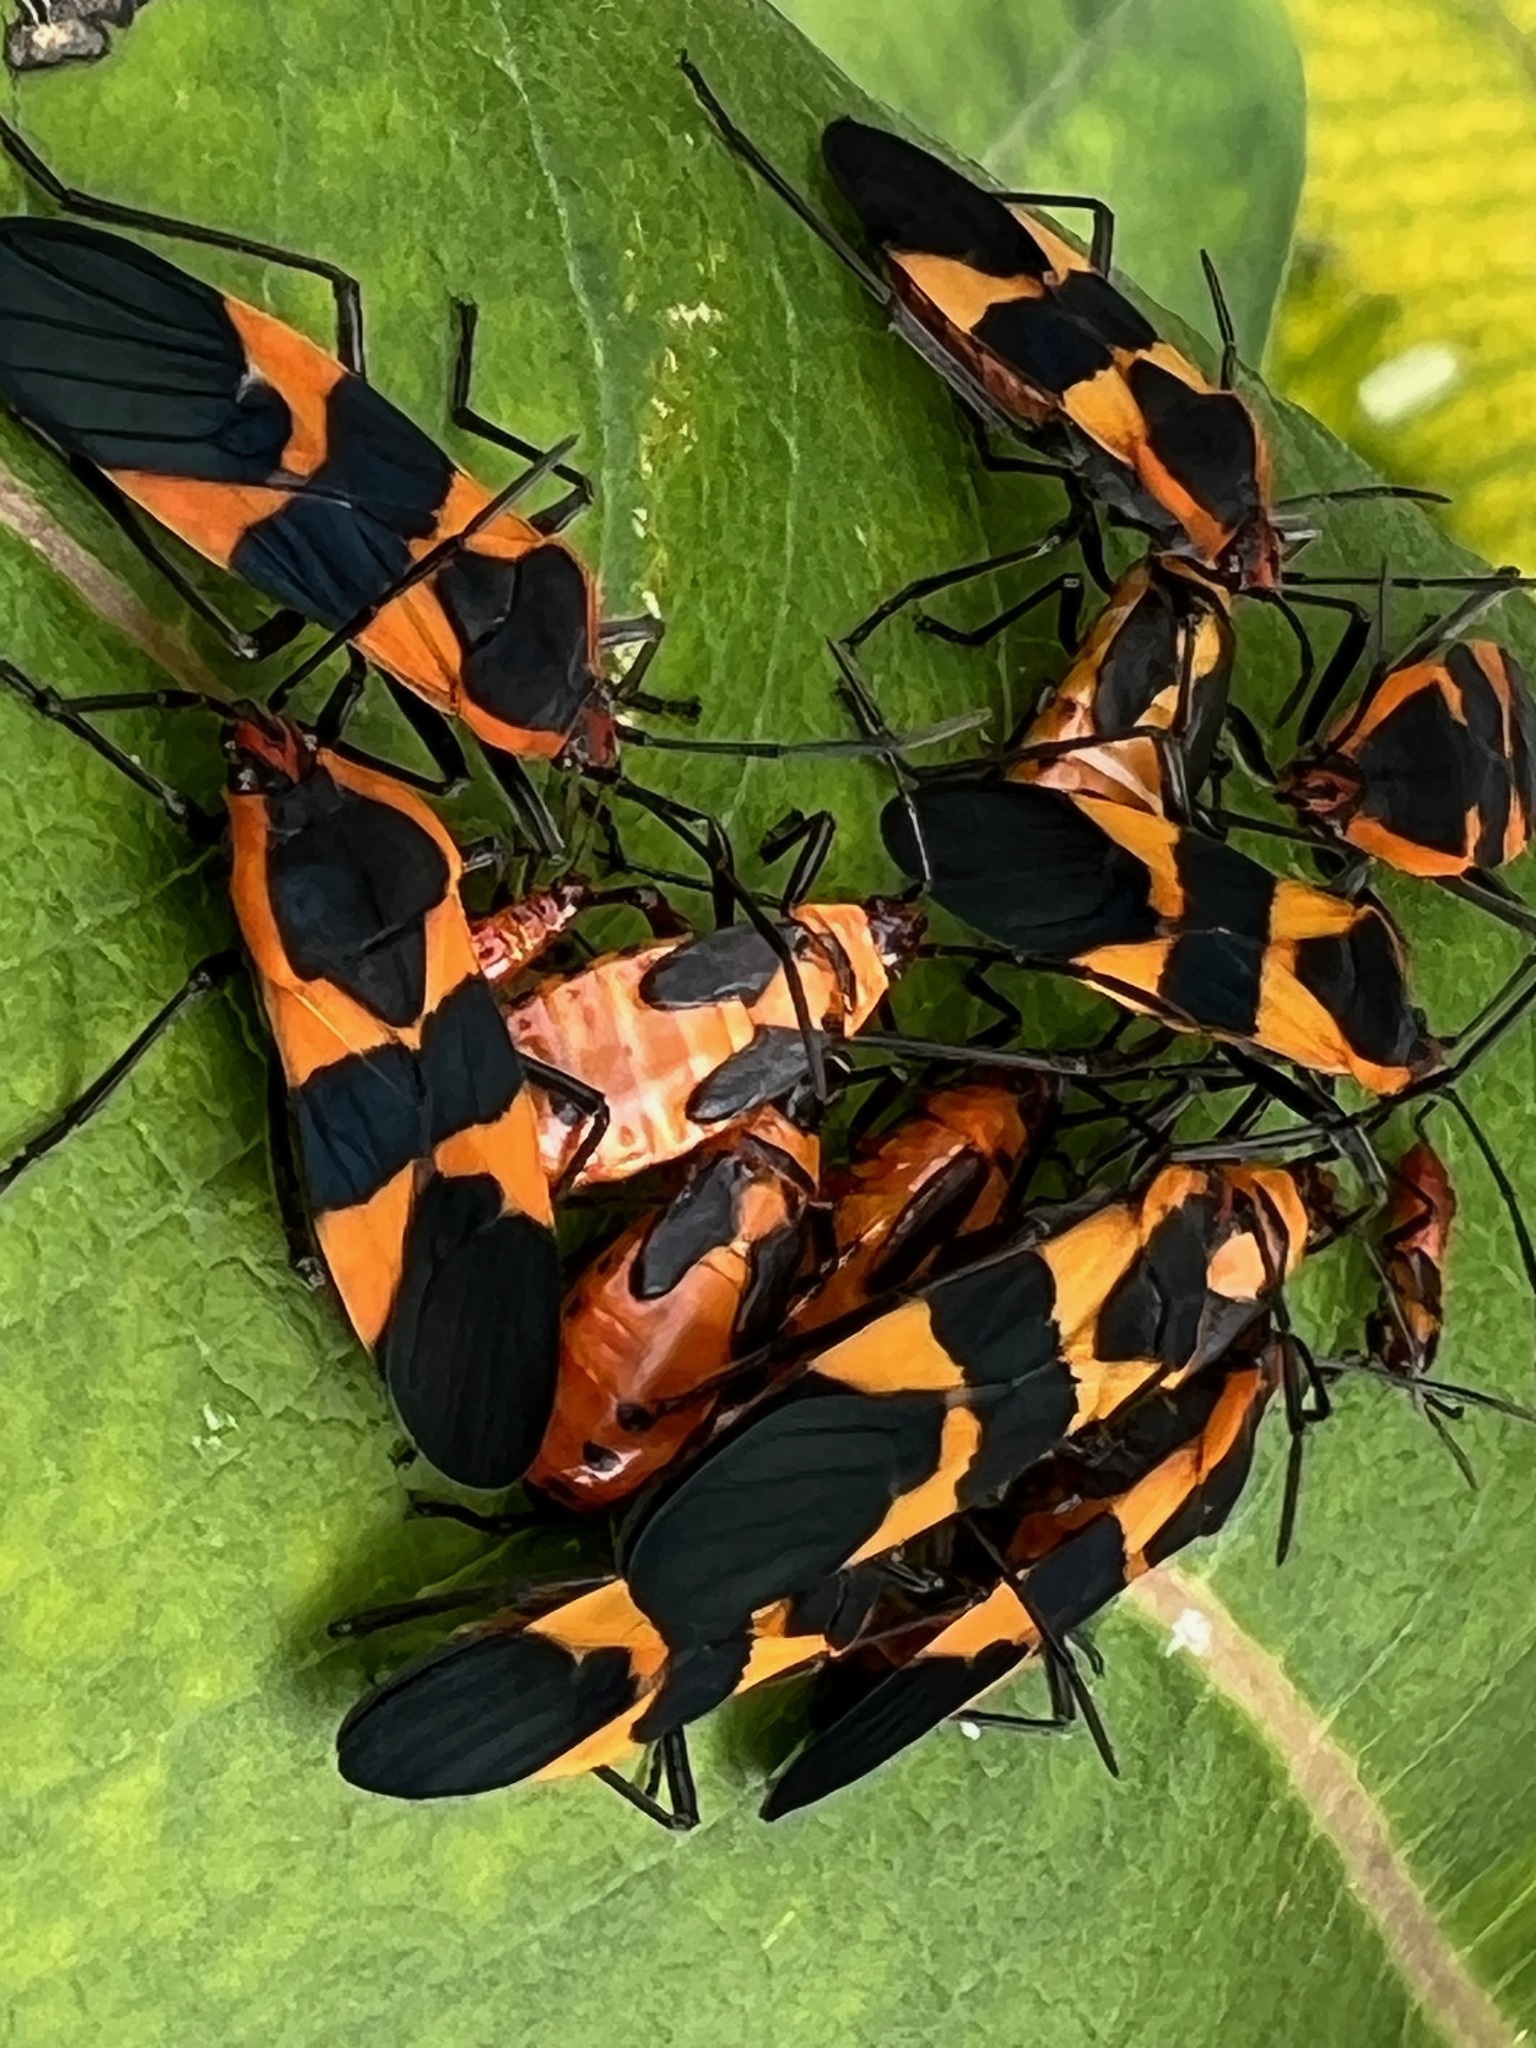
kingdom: Animalia
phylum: Arthropoda
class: Insecta
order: Hemiptera
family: Lygaeidae
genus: Oncopeltus
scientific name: Oncopeltus fasciatus
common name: Large milkweed bug
